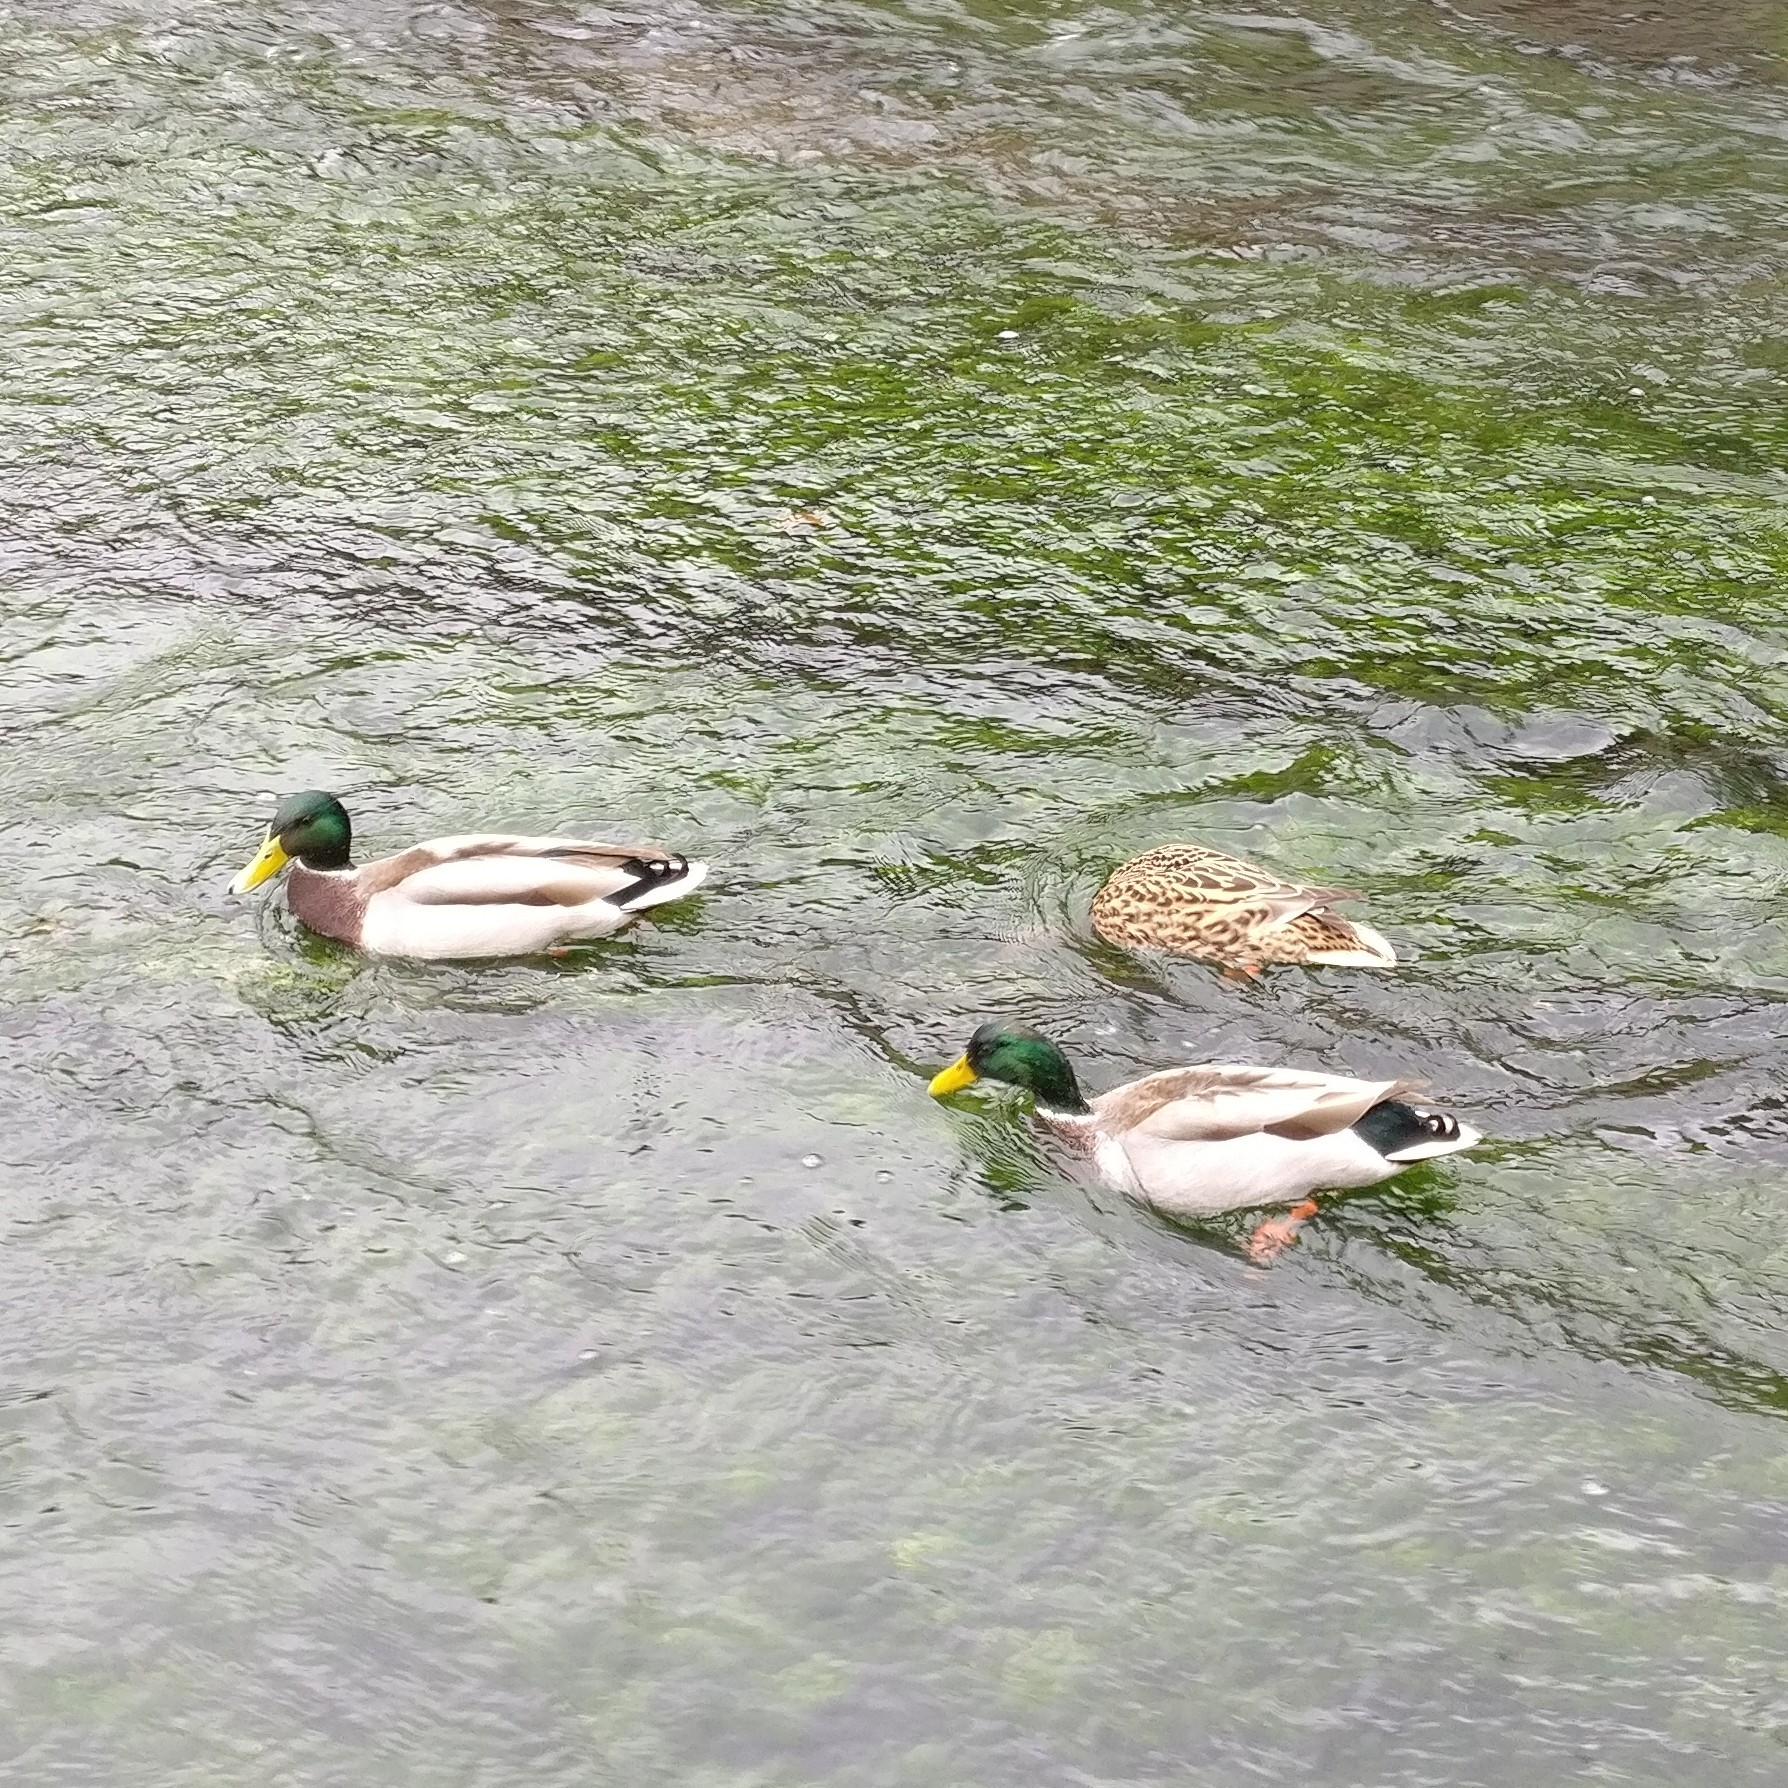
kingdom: Animalia
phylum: Chordata
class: Aves
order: Anseriformes
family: Anatidae
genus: Anas
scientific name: Anas platyrhynchos
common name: Mallard
